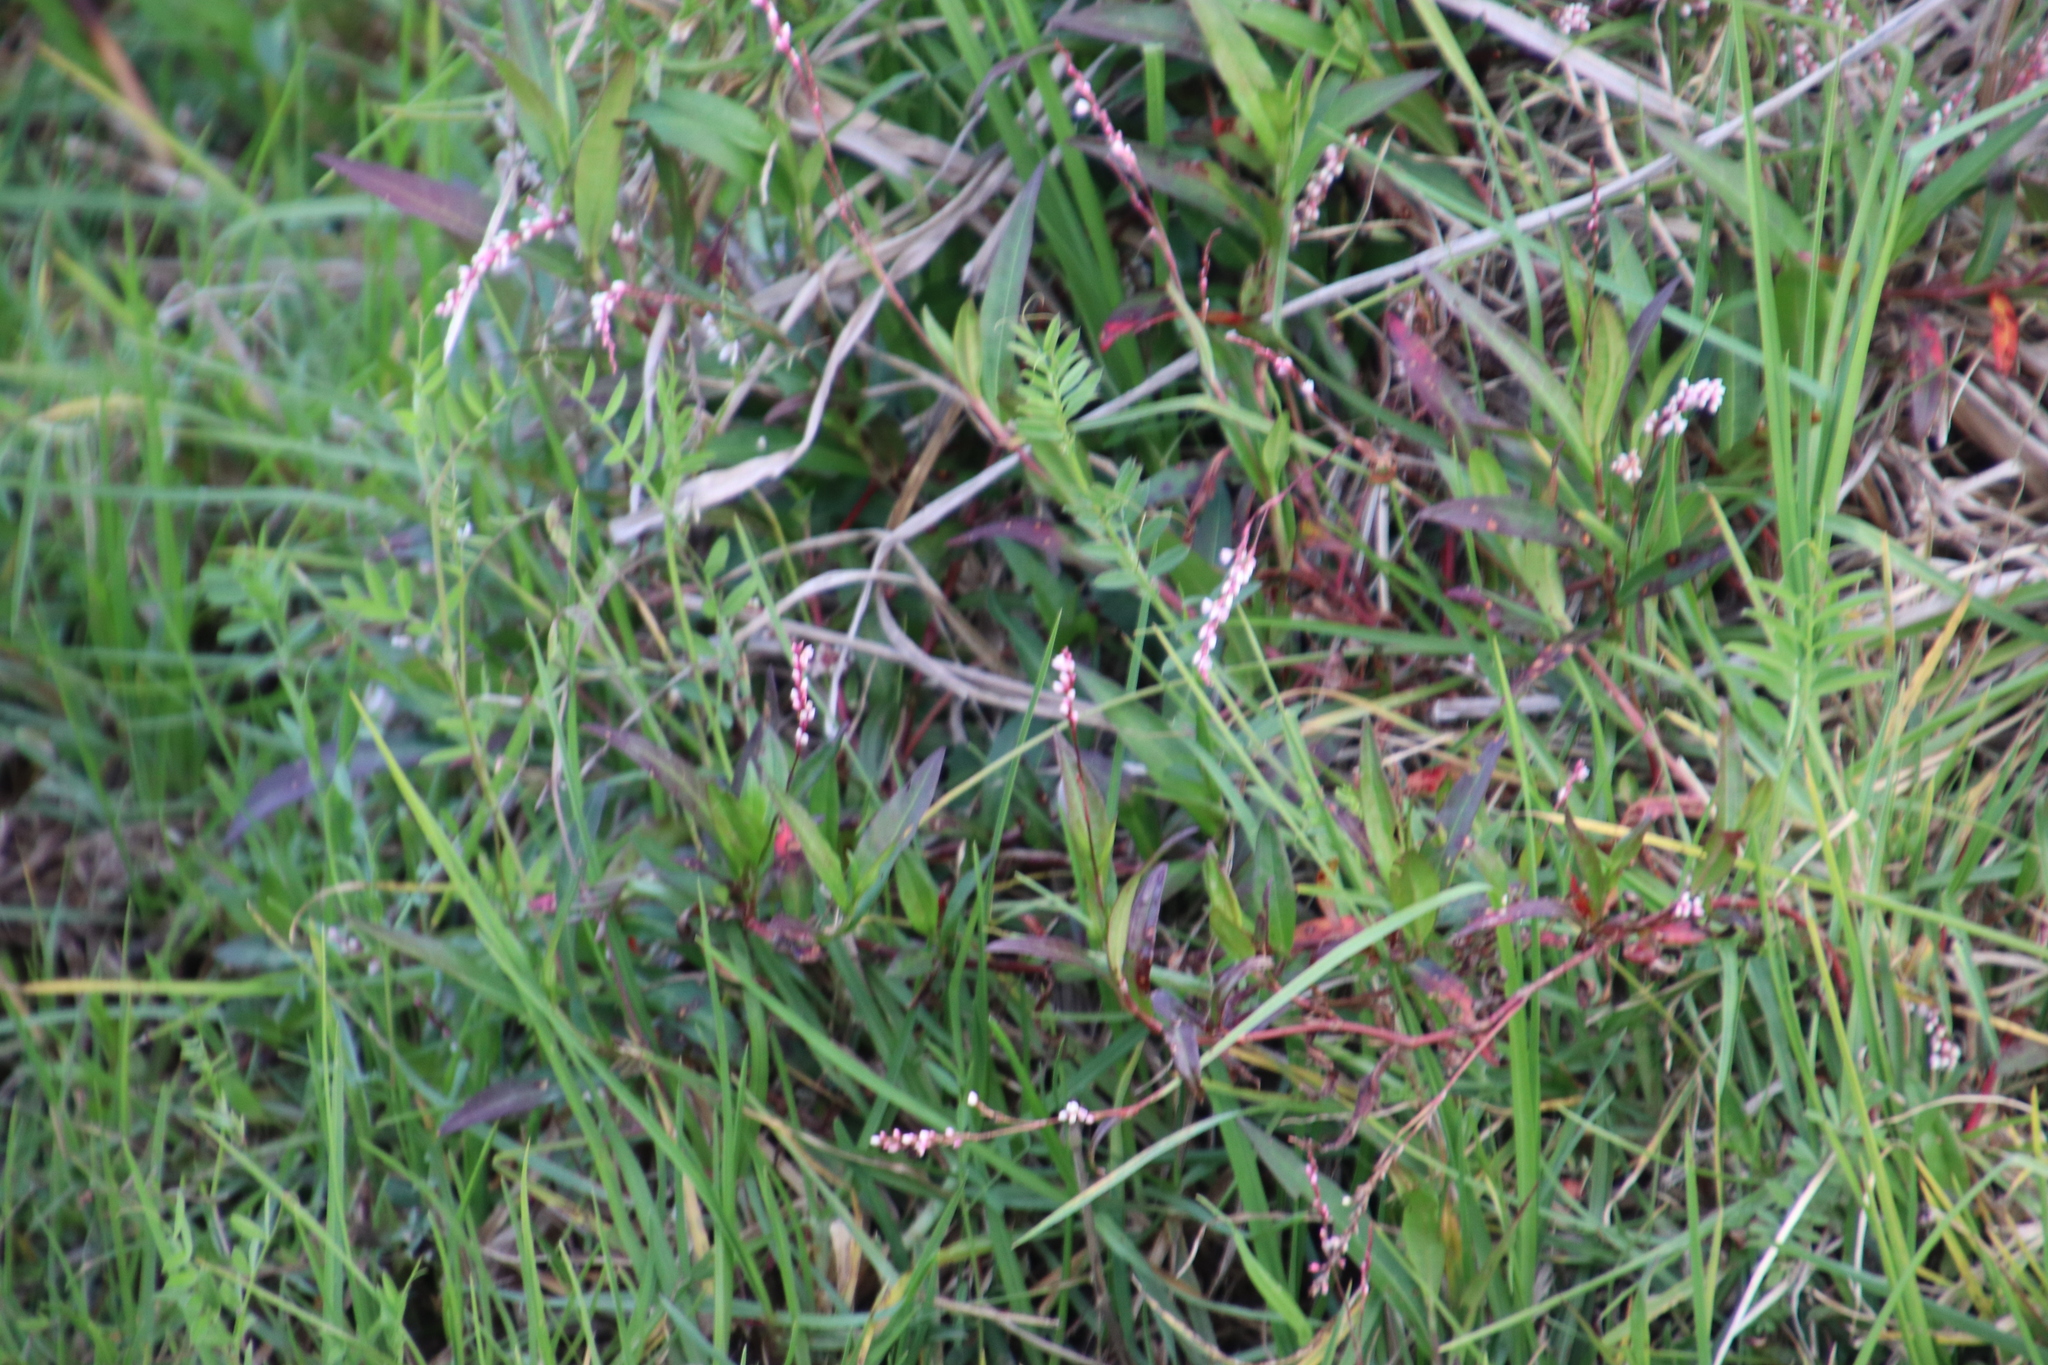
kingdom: Plantae
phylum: Tracheophyta
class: Magnoliopsida
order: Caryophyllales
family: Polygonaceae
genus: Persicaria
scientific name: Persicaria decipiens
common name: Willow-weed
